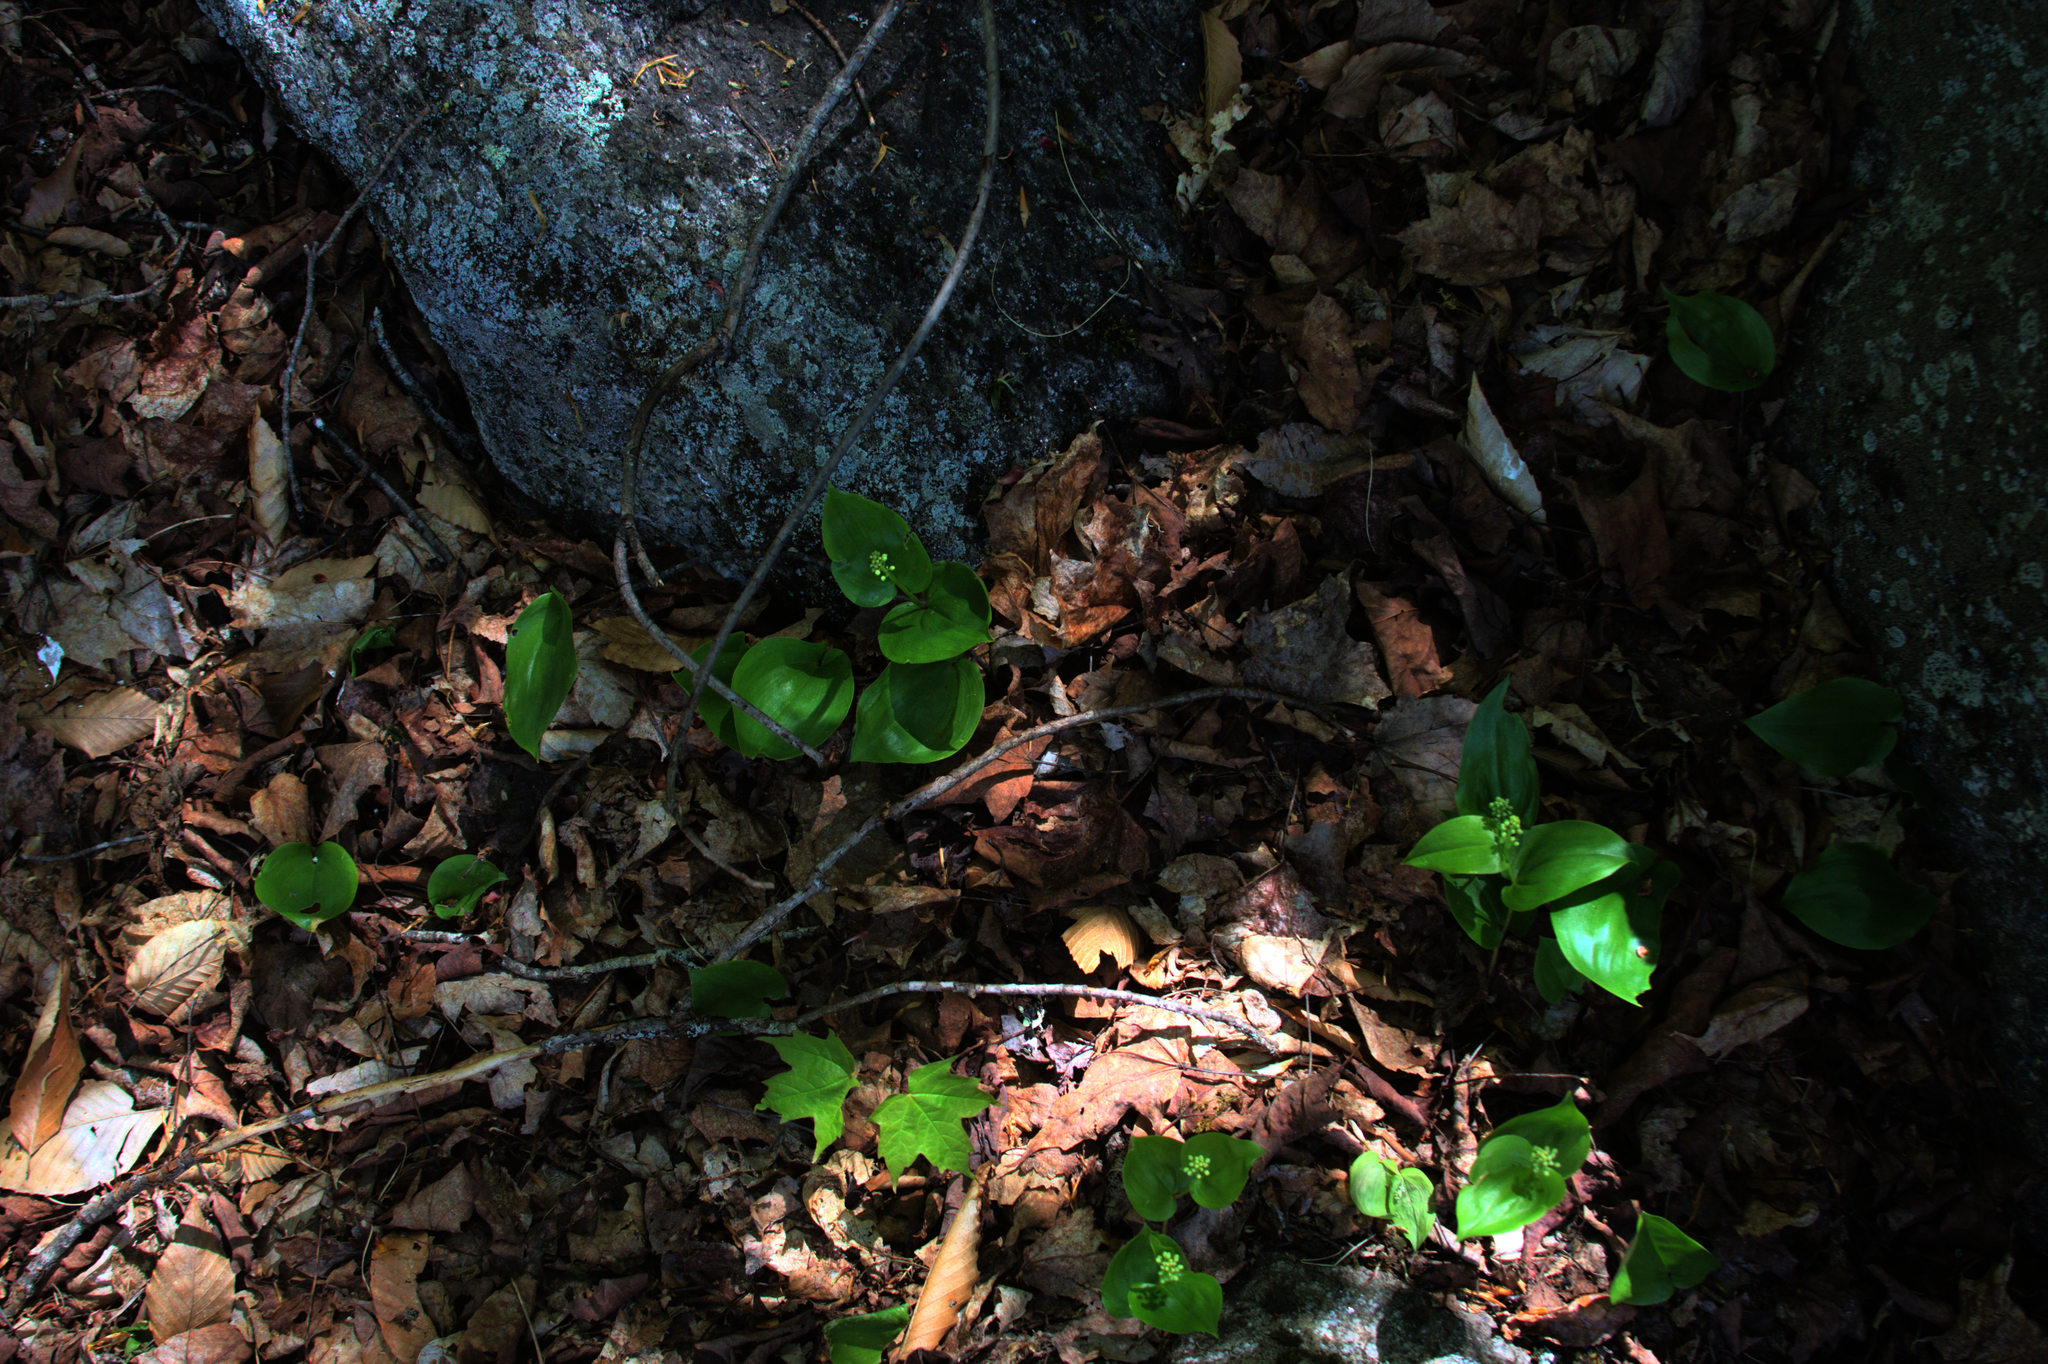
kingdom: Plantae
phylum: Tracheophyta
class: Liliopsida
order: Asparagales
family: Asparagaceae
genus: Maianthemum
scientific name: Maianthemum canadense
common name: False lily-of-the-valley
